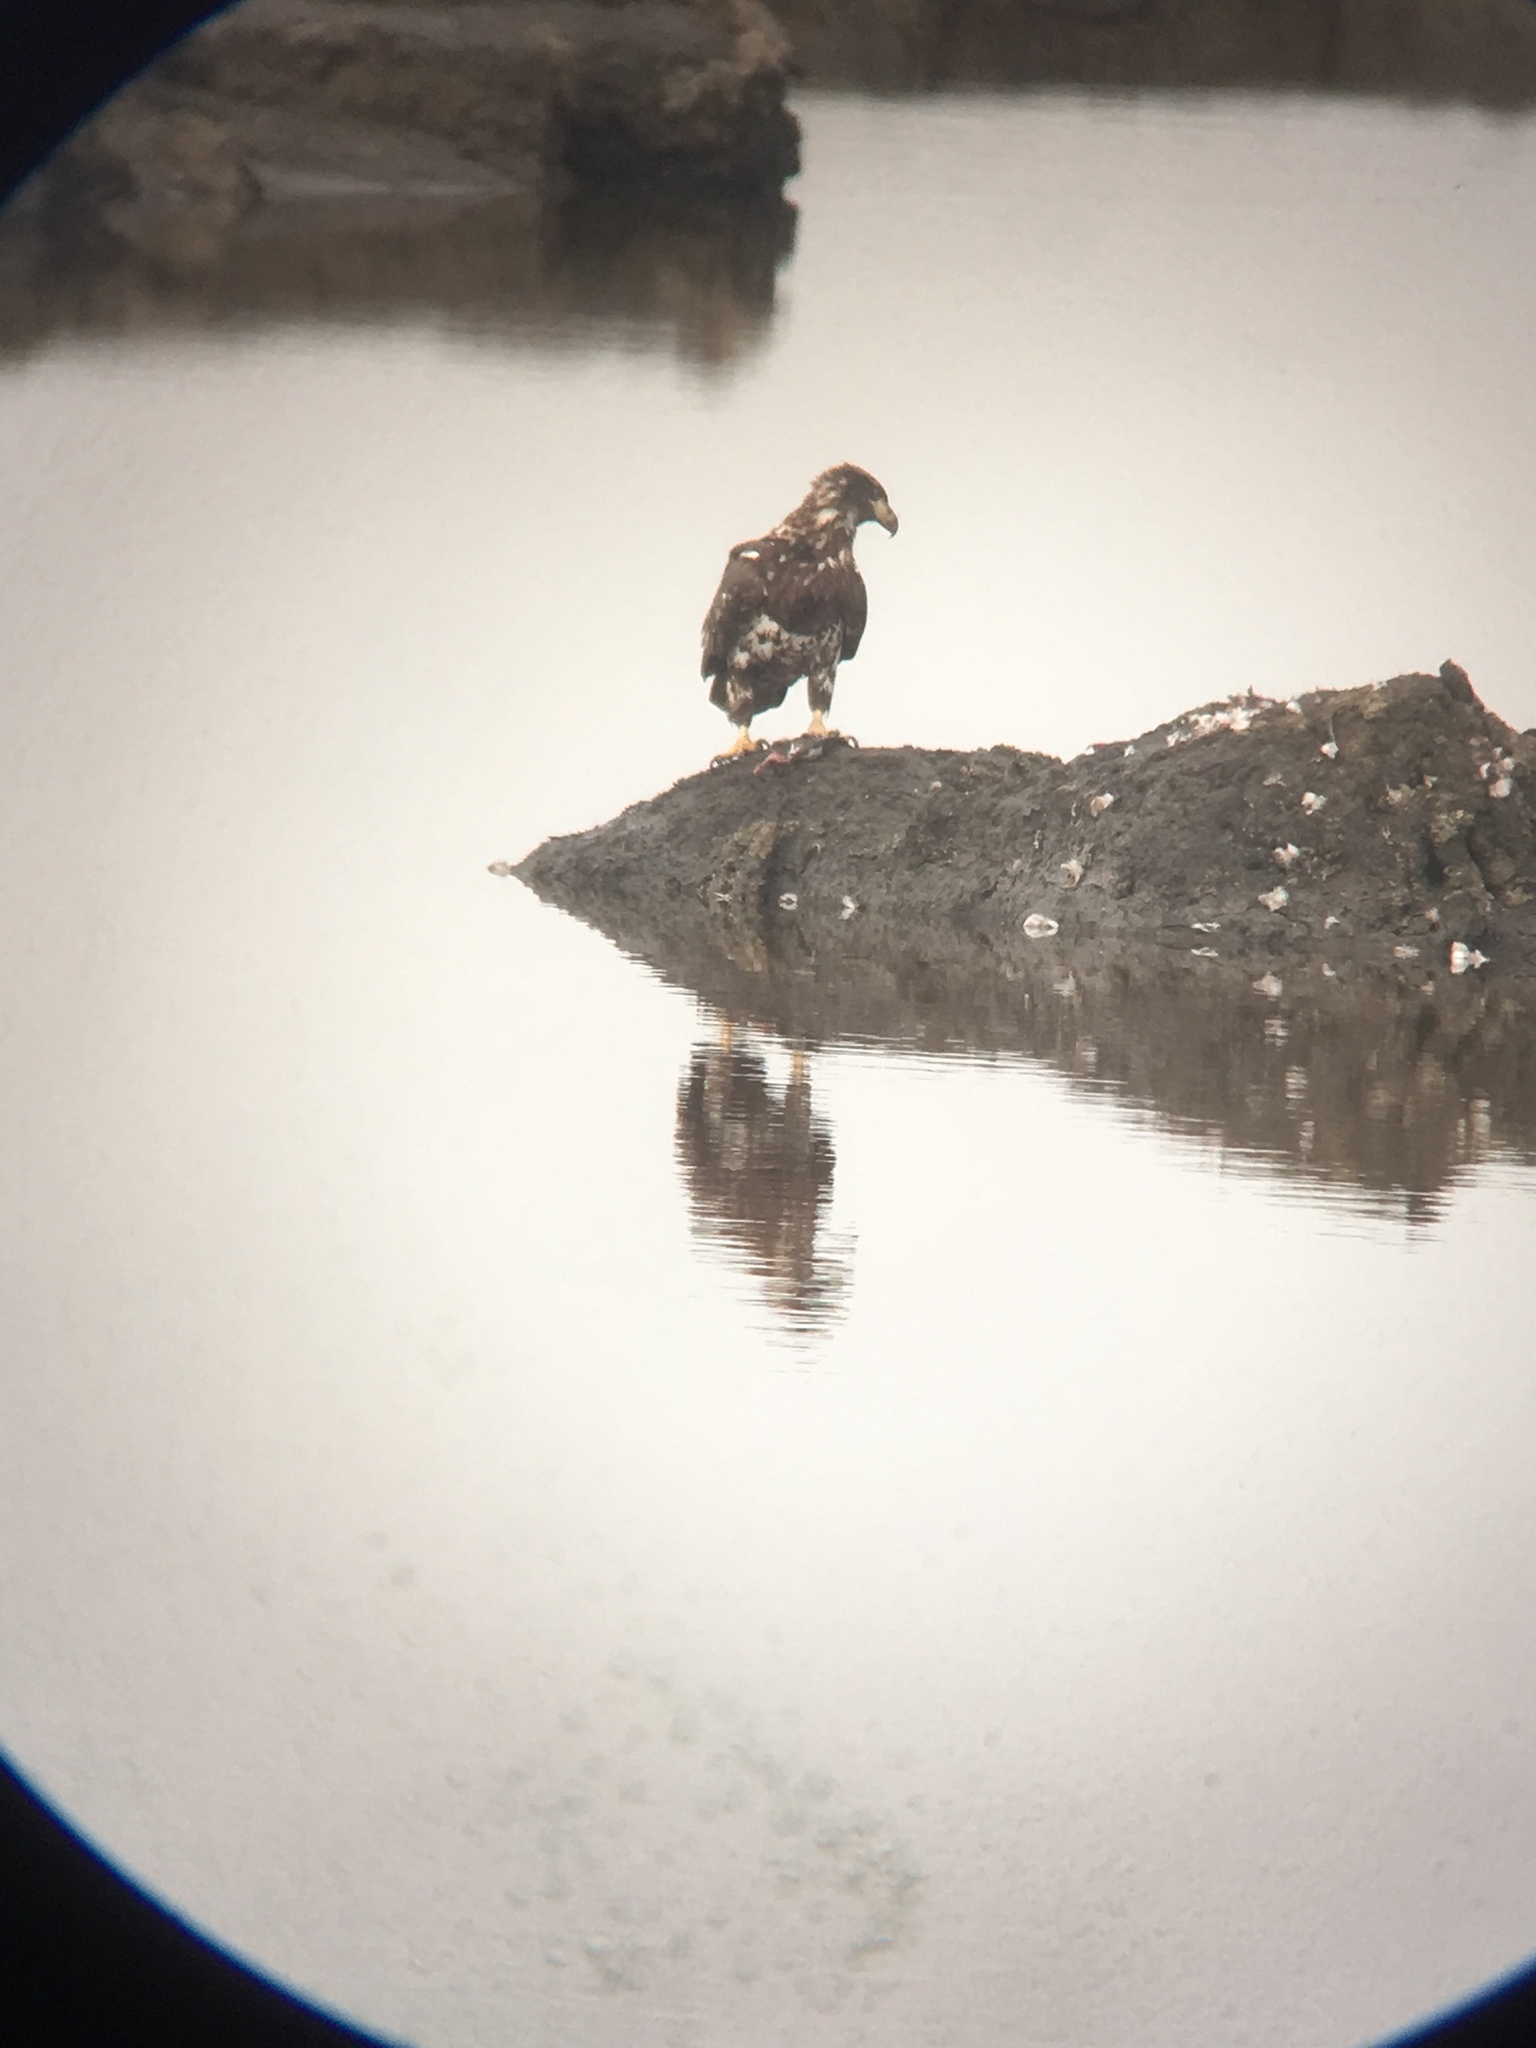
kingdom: Animalia
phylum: Chordata
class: Aves
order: Accipitriformes
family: Accipitridae
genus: Haliaeetus
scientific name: Haliaeetus leucocephalus
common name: Bald eagle
